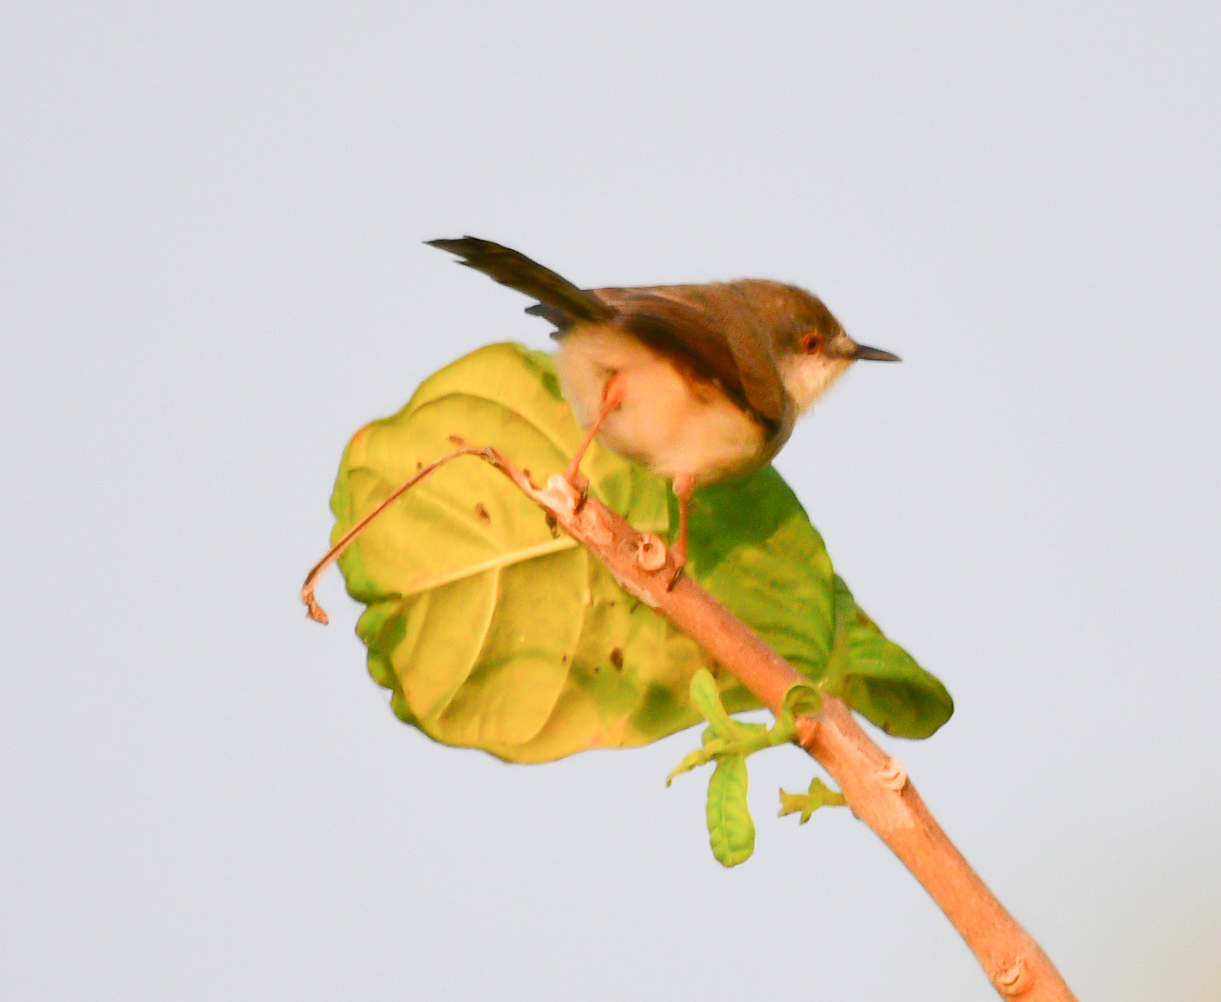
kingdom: Animalia
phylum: Chordata
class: Aves
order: Passeriformes
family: Cisticolidae
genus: Prinia
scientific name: Prinia hodgsonii
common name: Grey-breasted prinia
